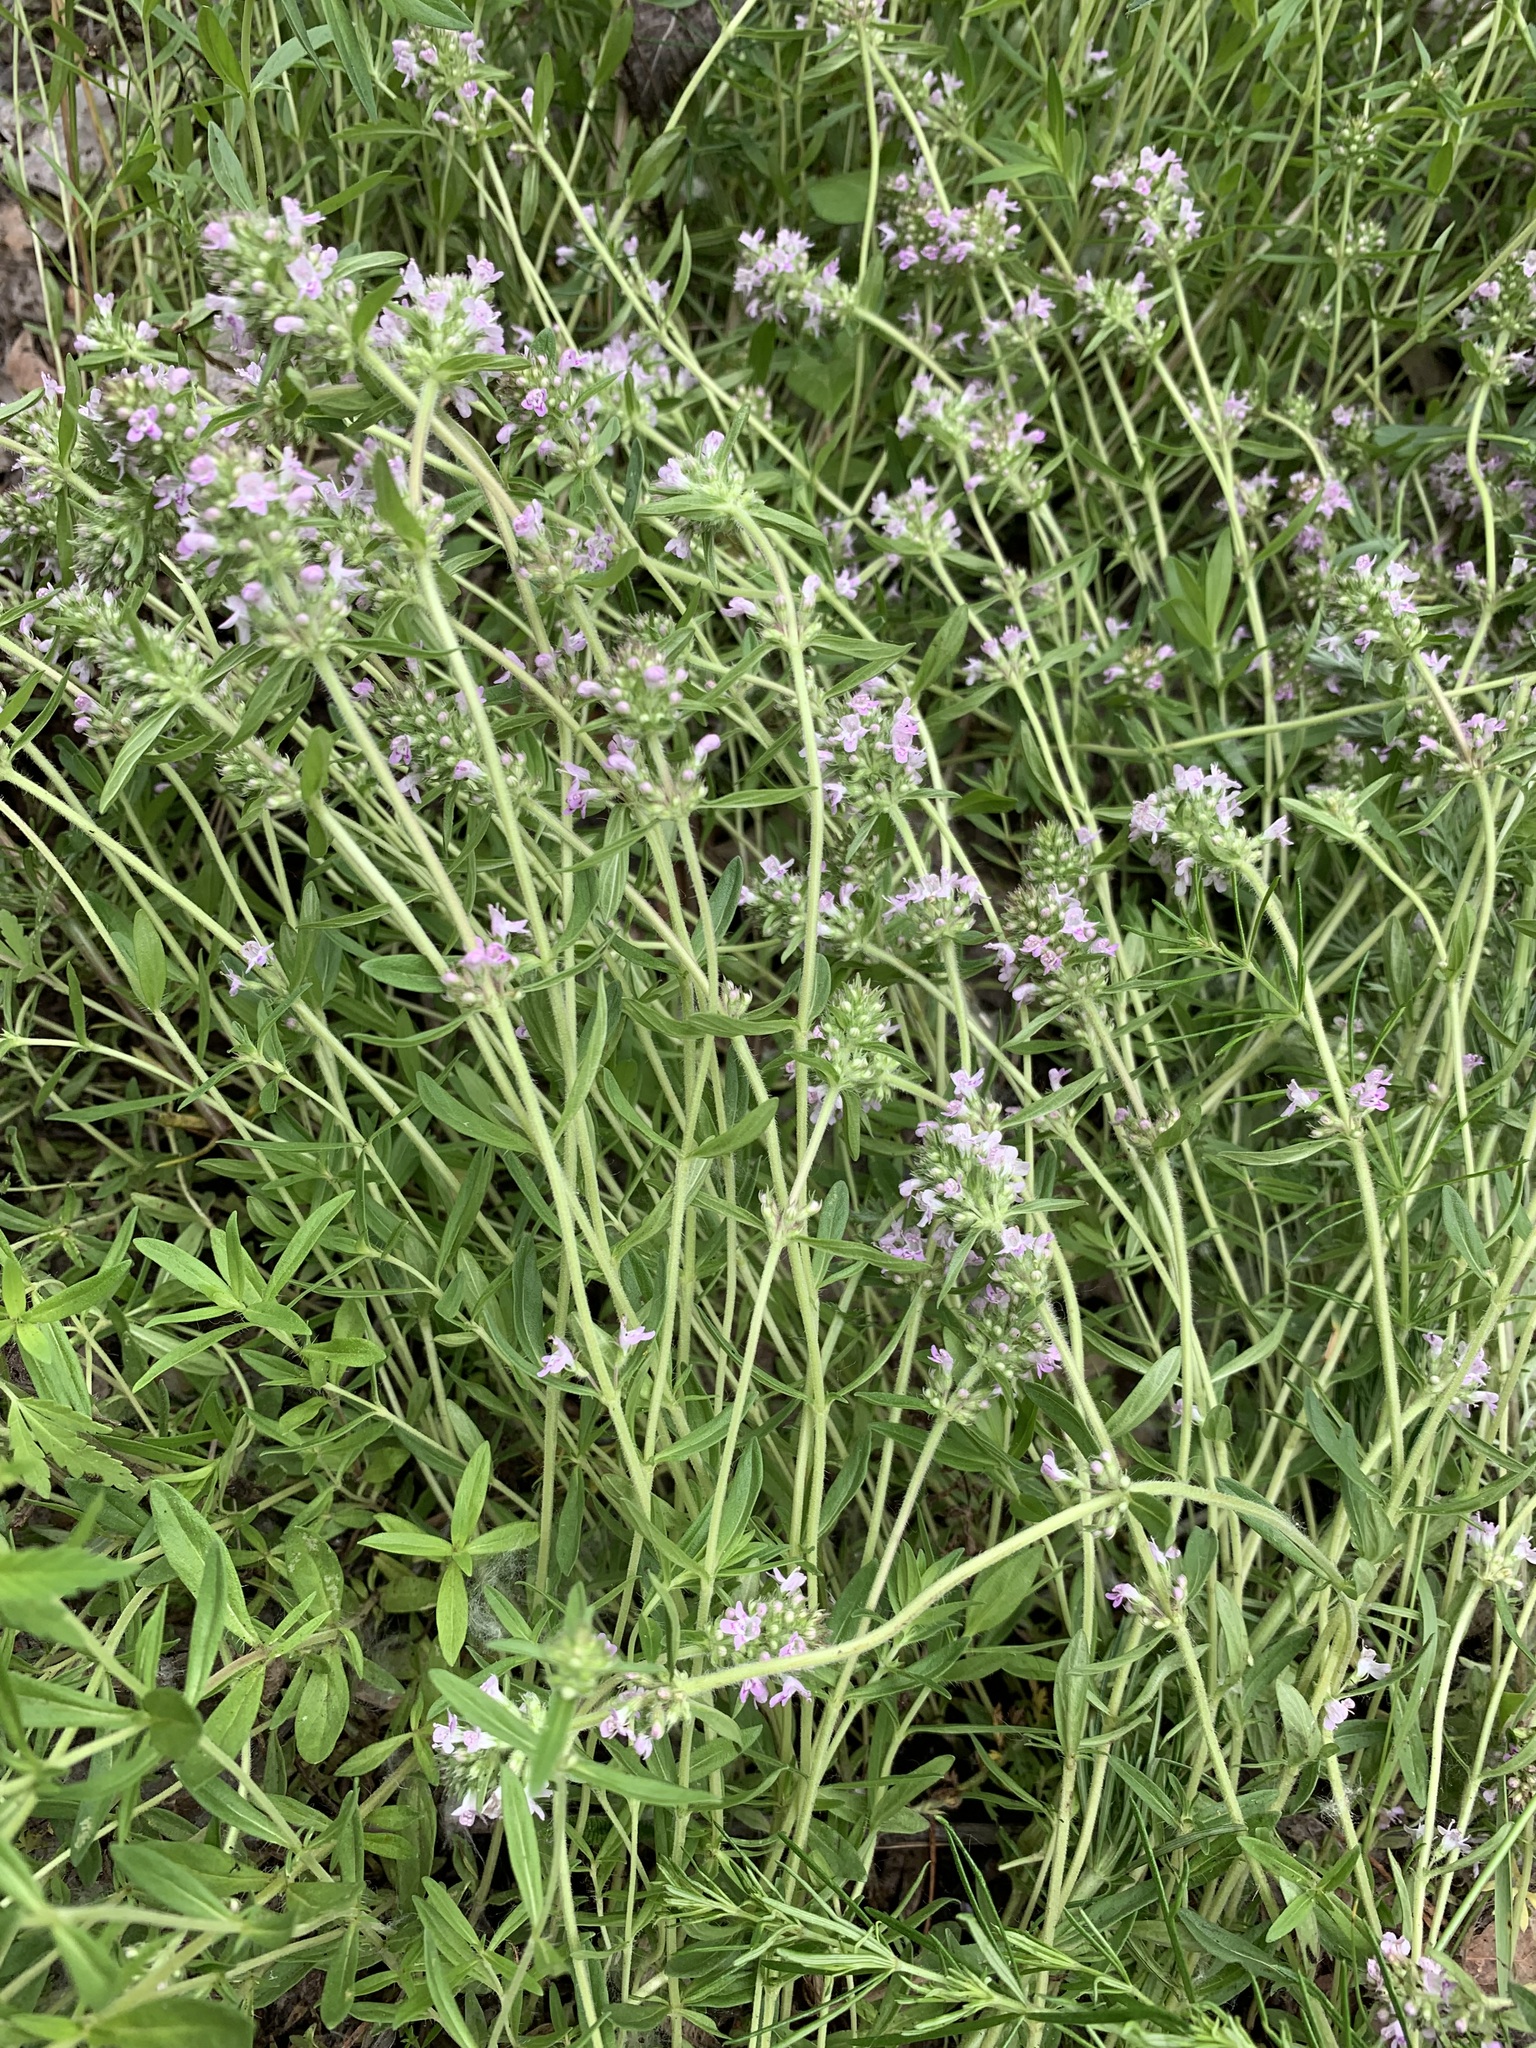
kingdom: Plantae
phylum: Tracheophyta
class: Magnoliopsida
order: Lamiales
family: Lamiaceae
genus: Thymus
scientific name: Thymus pannonicus
